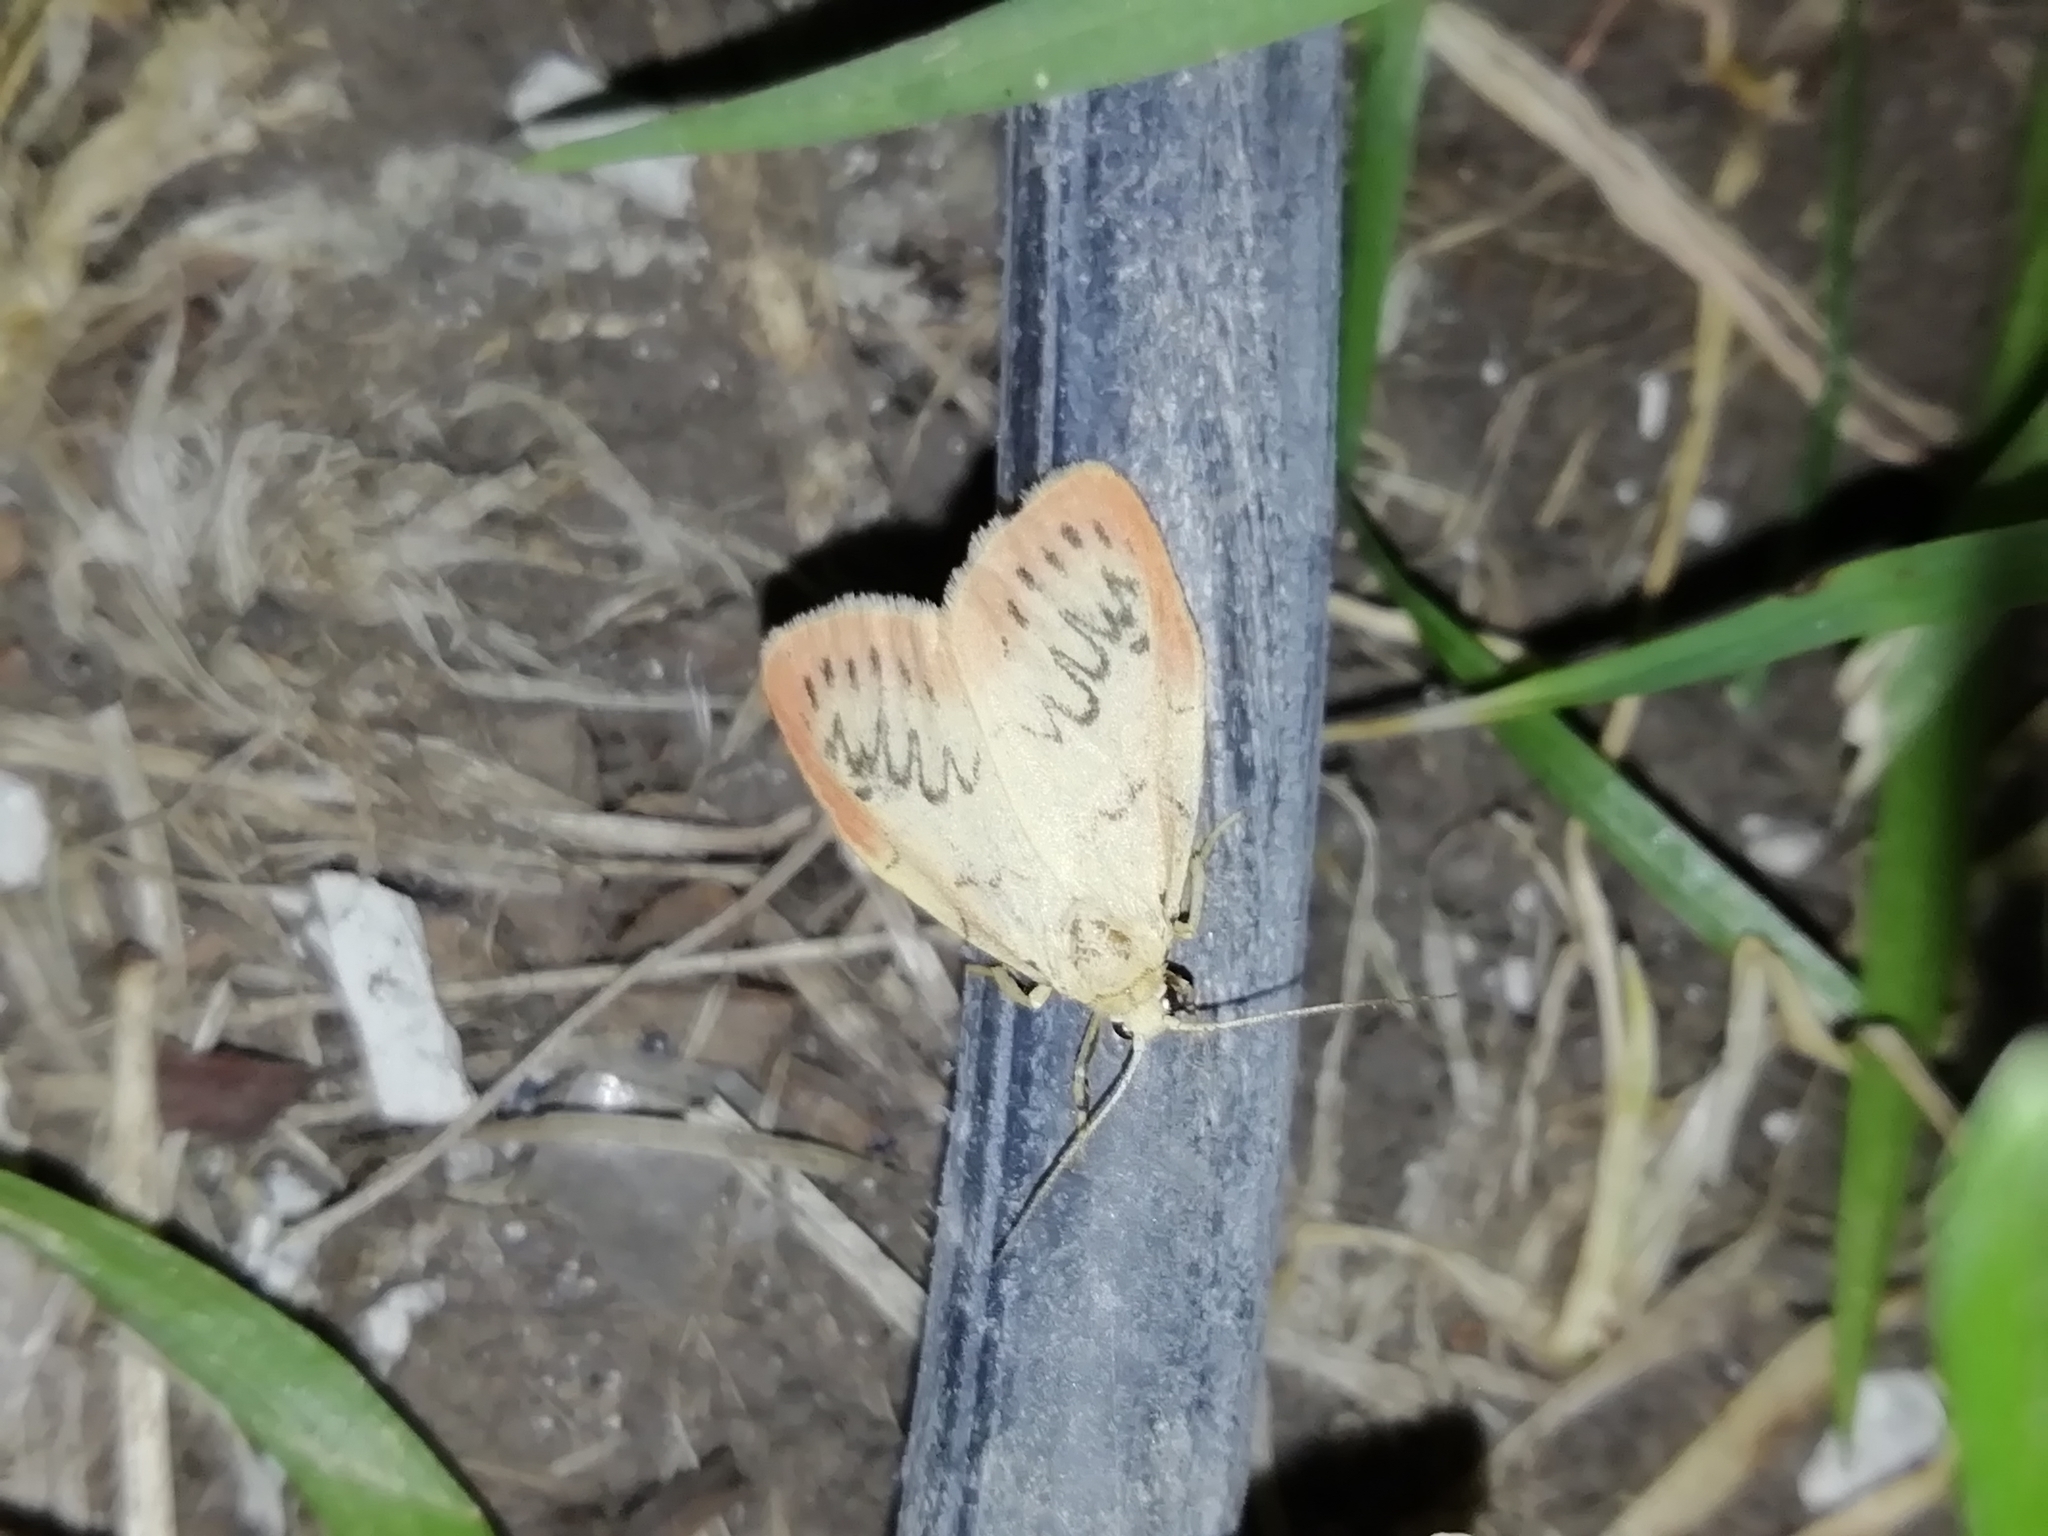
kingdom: Animalia
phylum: Arthropoda
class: Insecta
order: Lepidoptera
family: Erebidae
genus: Miltochrista
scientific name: Miltochrista miniata
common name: Rosy footman
